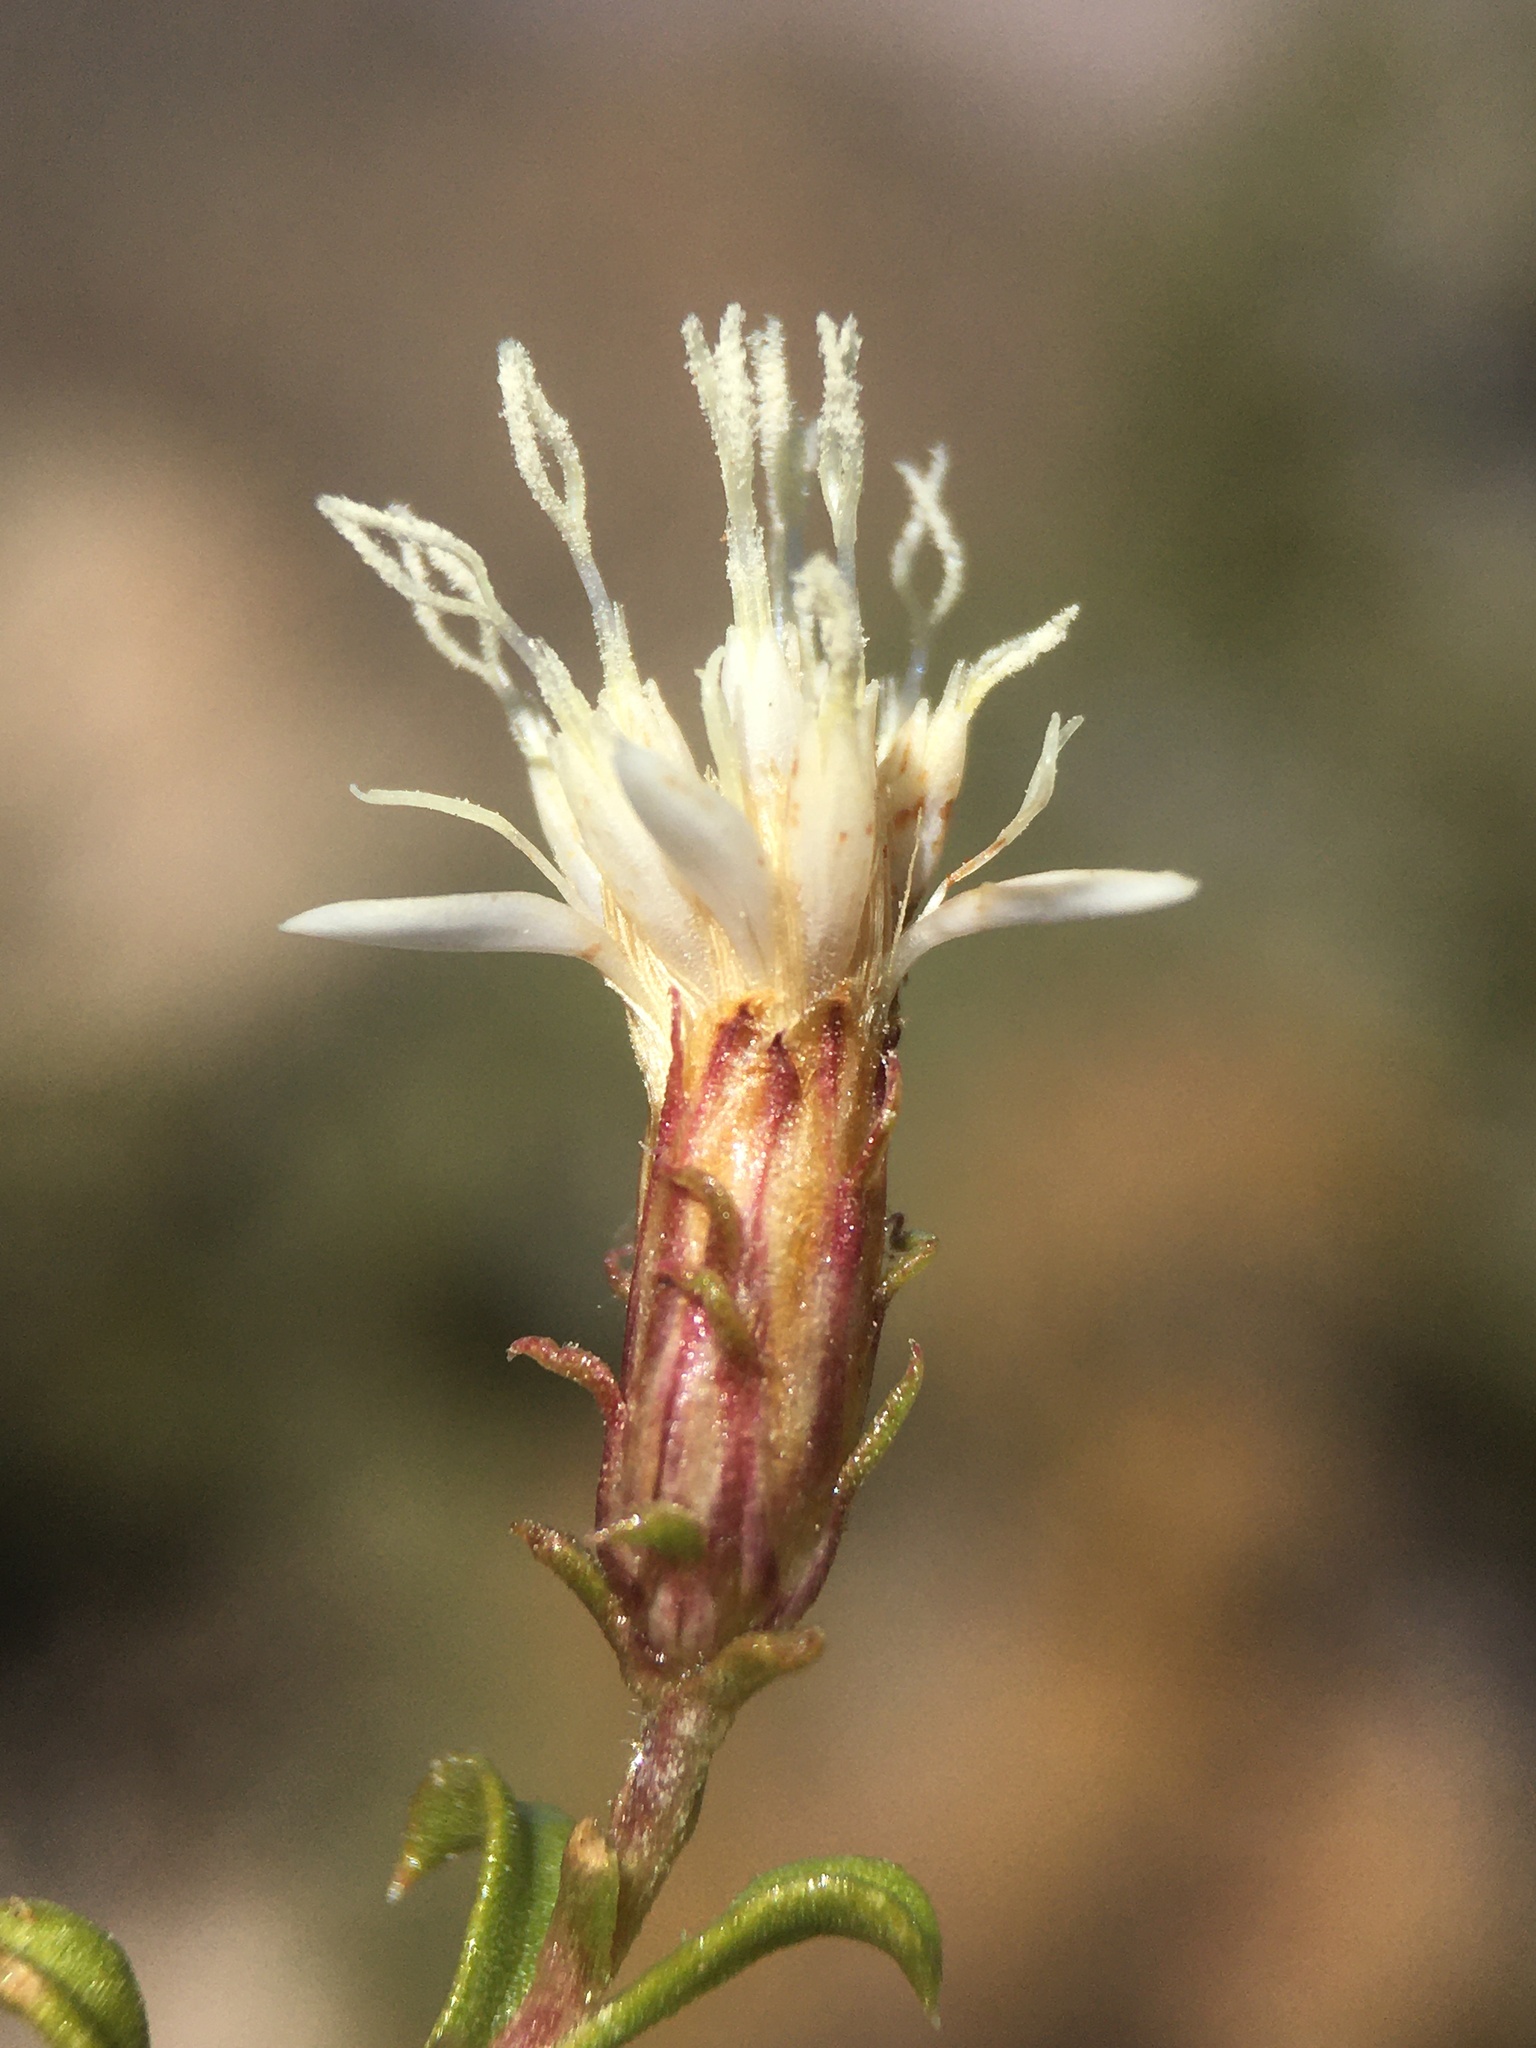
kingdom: Plantae
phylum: Tracheophyta
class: Magnoliopsida
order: Asterales
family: Asteraceae
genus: Ericameria
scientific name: Ericameria gilmanii
